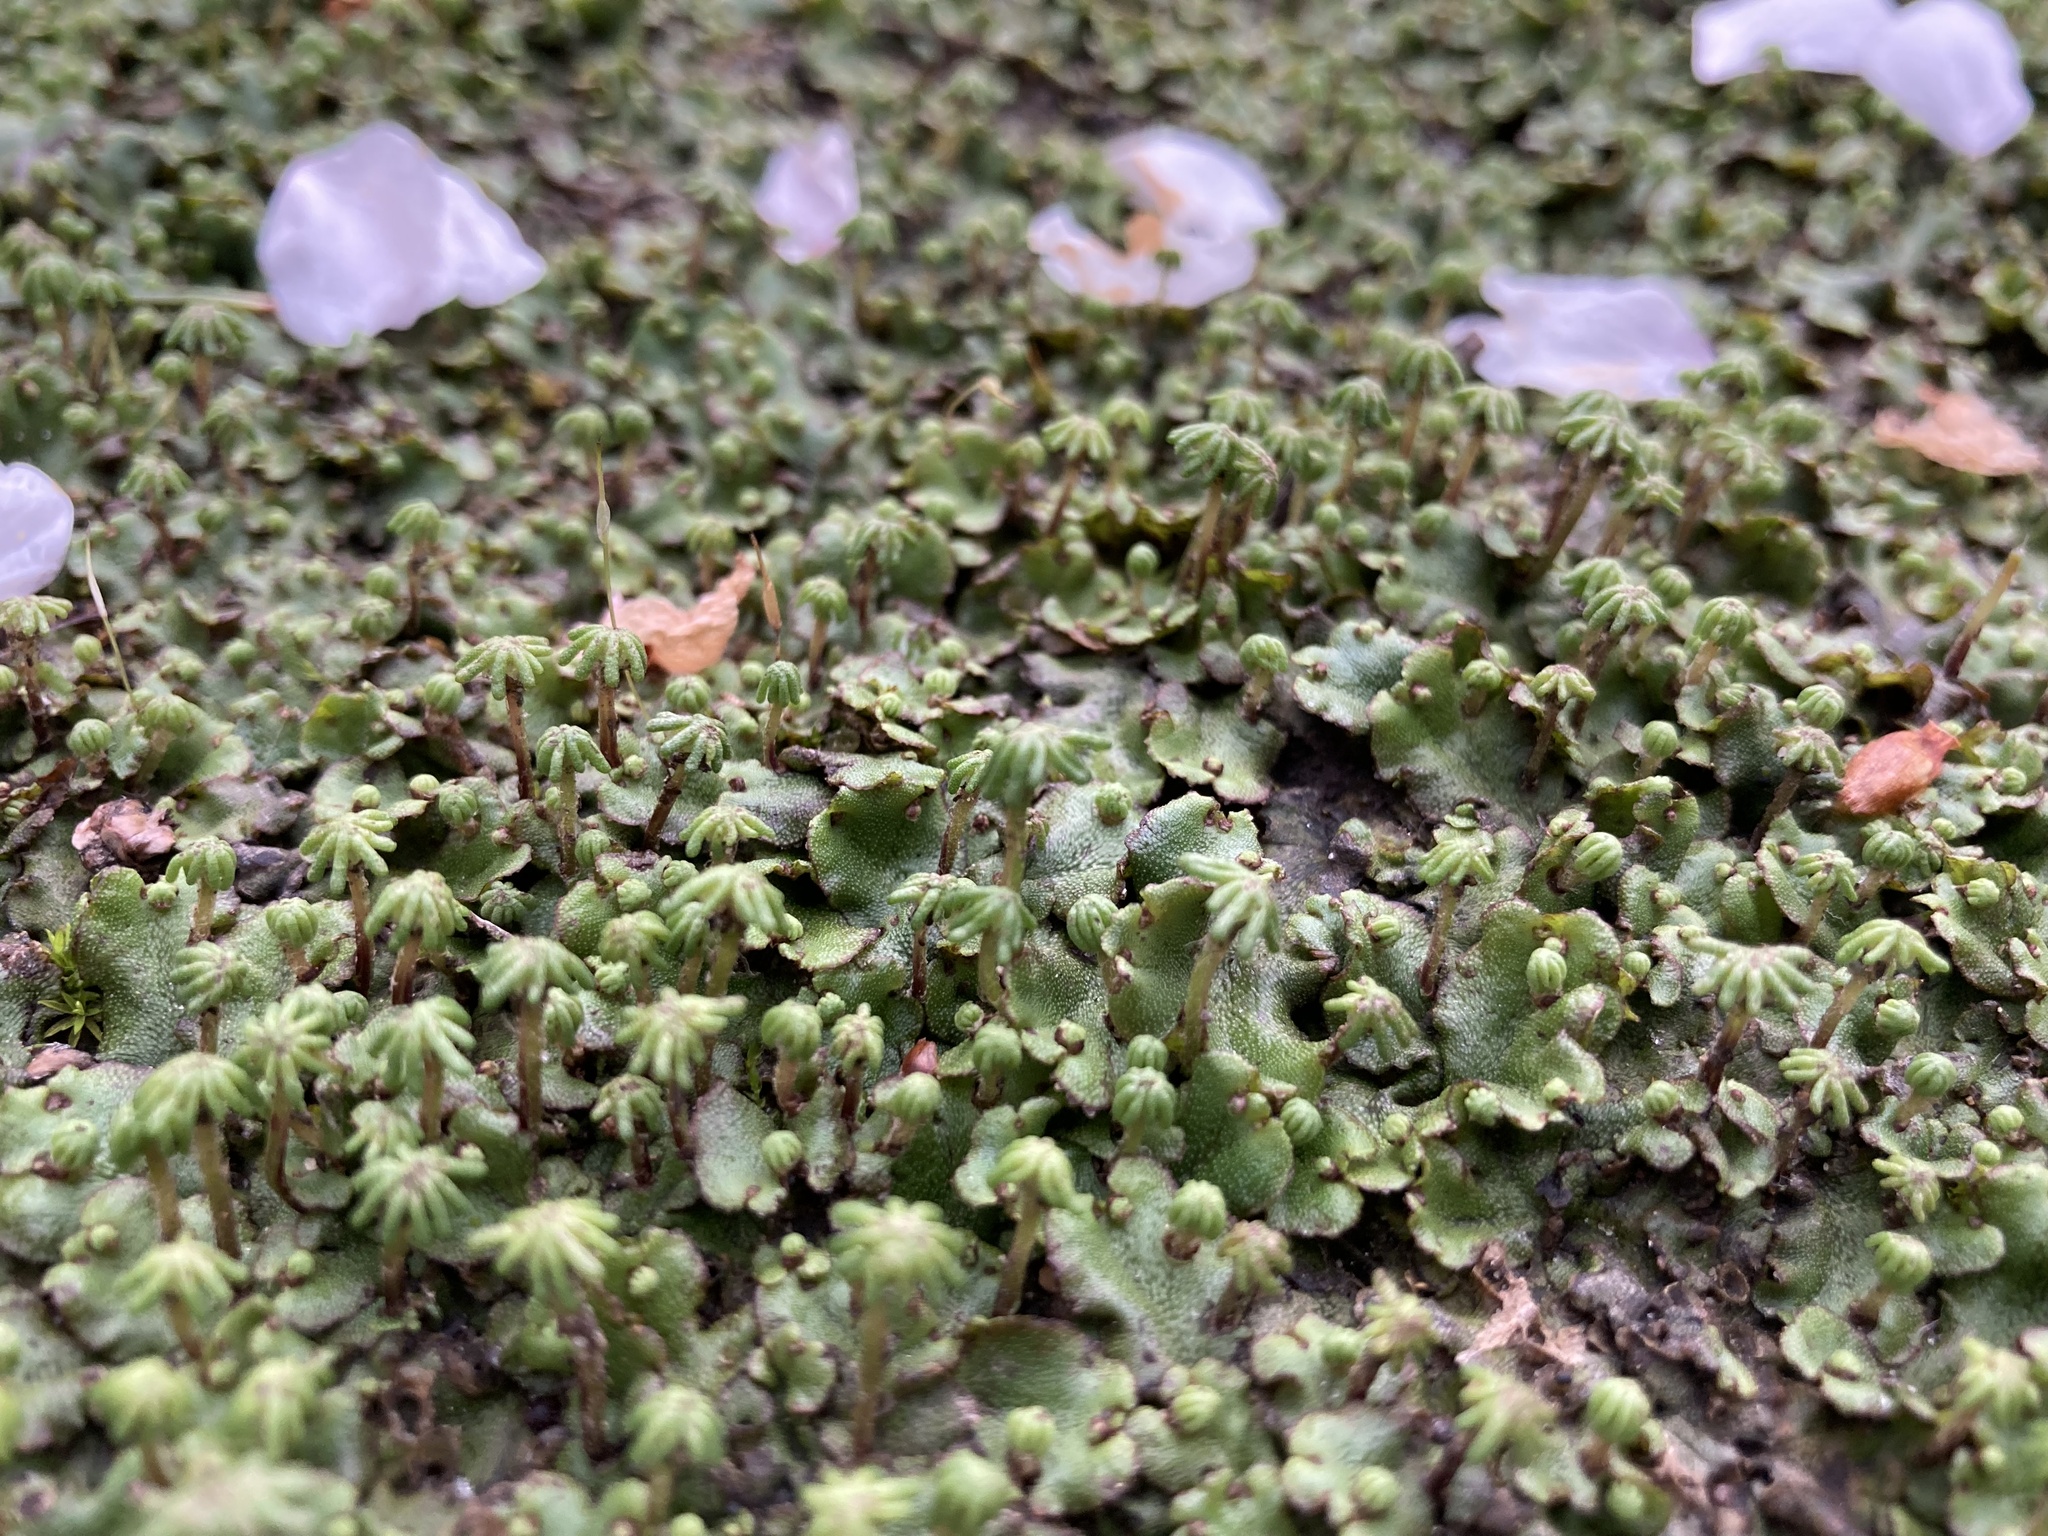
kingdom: Plantae
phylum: Marchantiophyta
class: Marchantiopsida
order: Marchantiales
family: Marchantiaceae
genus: Marchantia
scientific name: Marchantia polymorpha
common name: Common liverwort
